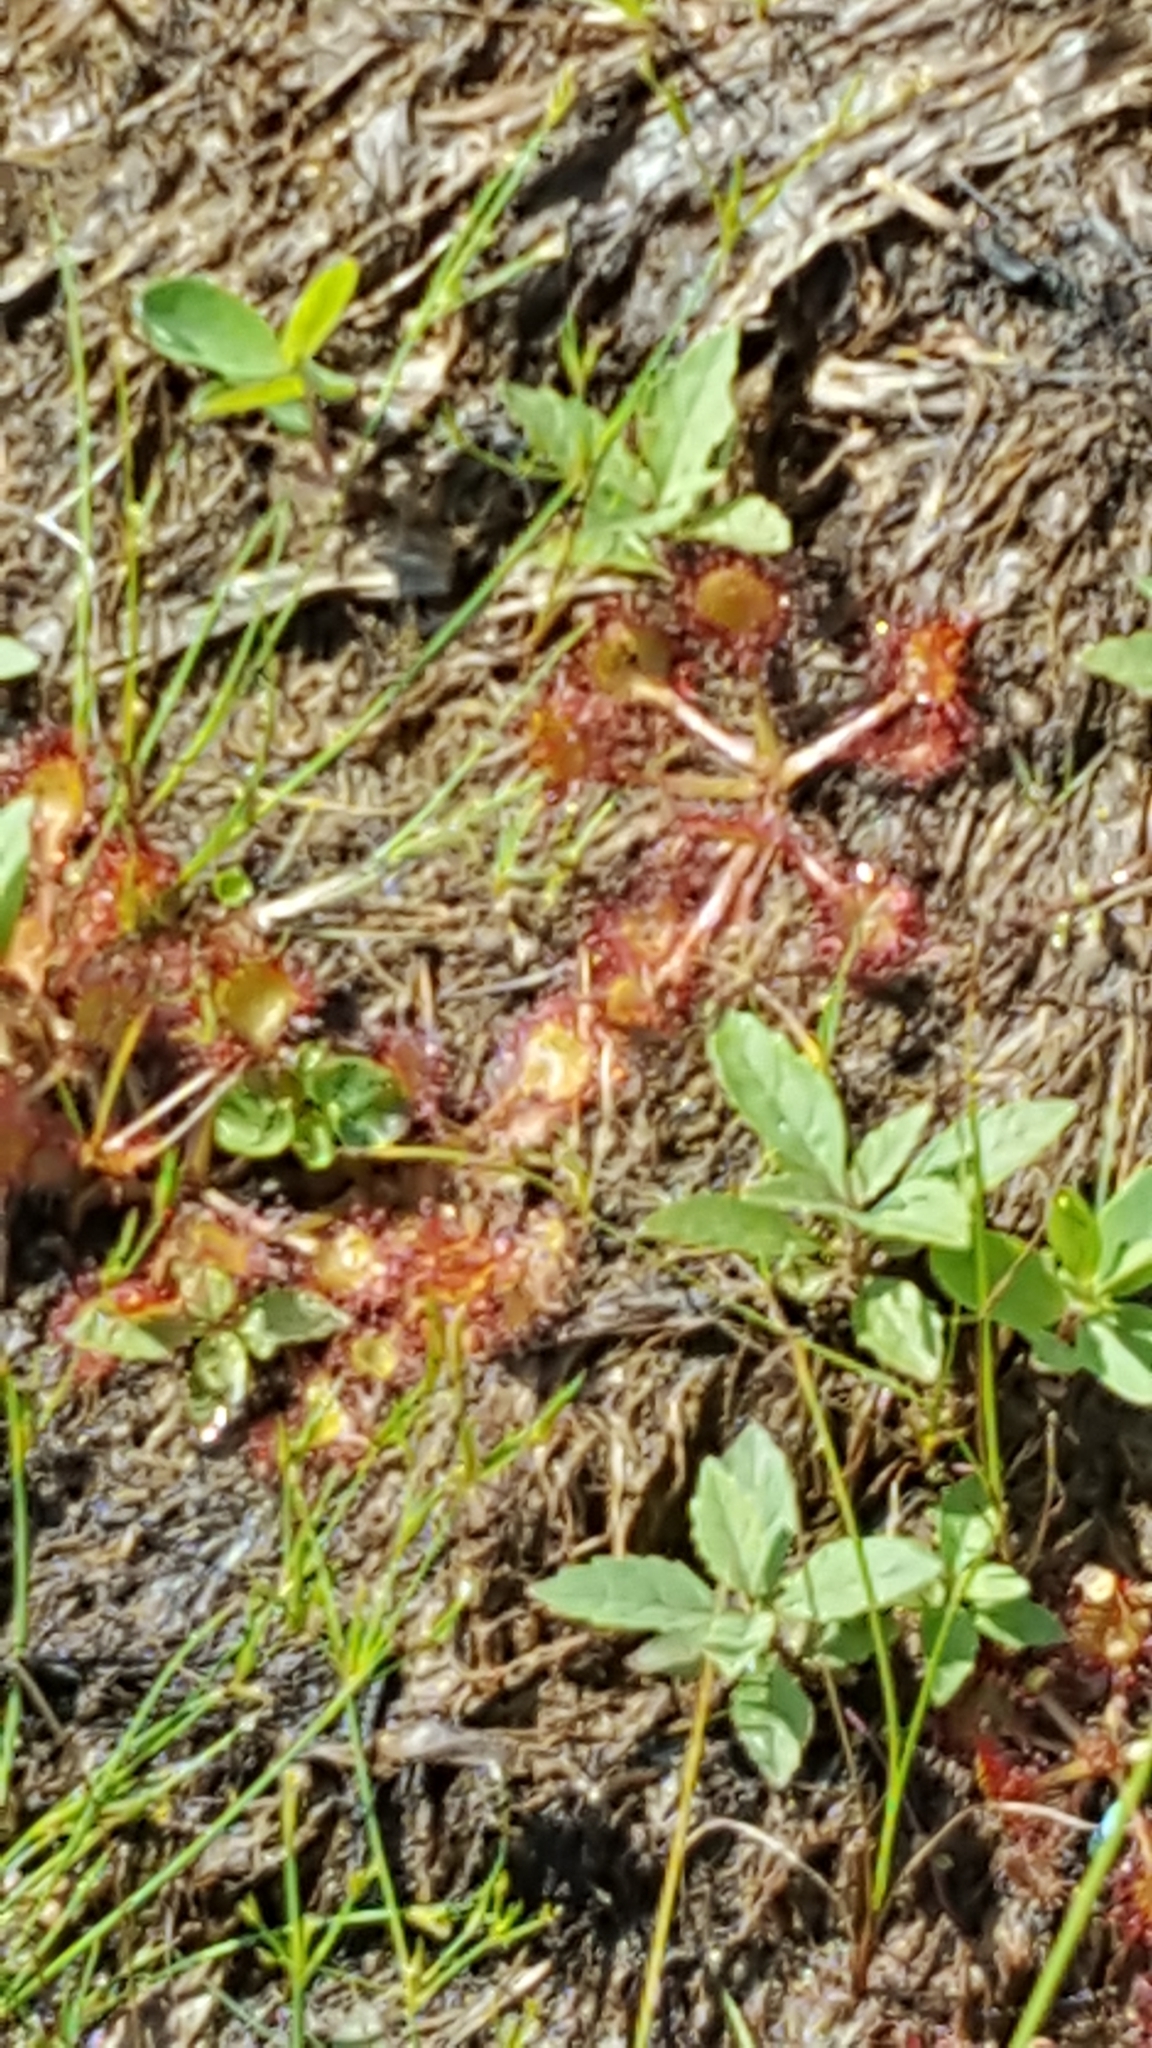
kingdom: Plantae
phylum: Tracheophyta
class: Magnoliopsida
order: Caryophyllales
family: Droseraceae
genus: Drosera
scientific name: Drosera rotundifolia
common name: Round-leaved sundew
